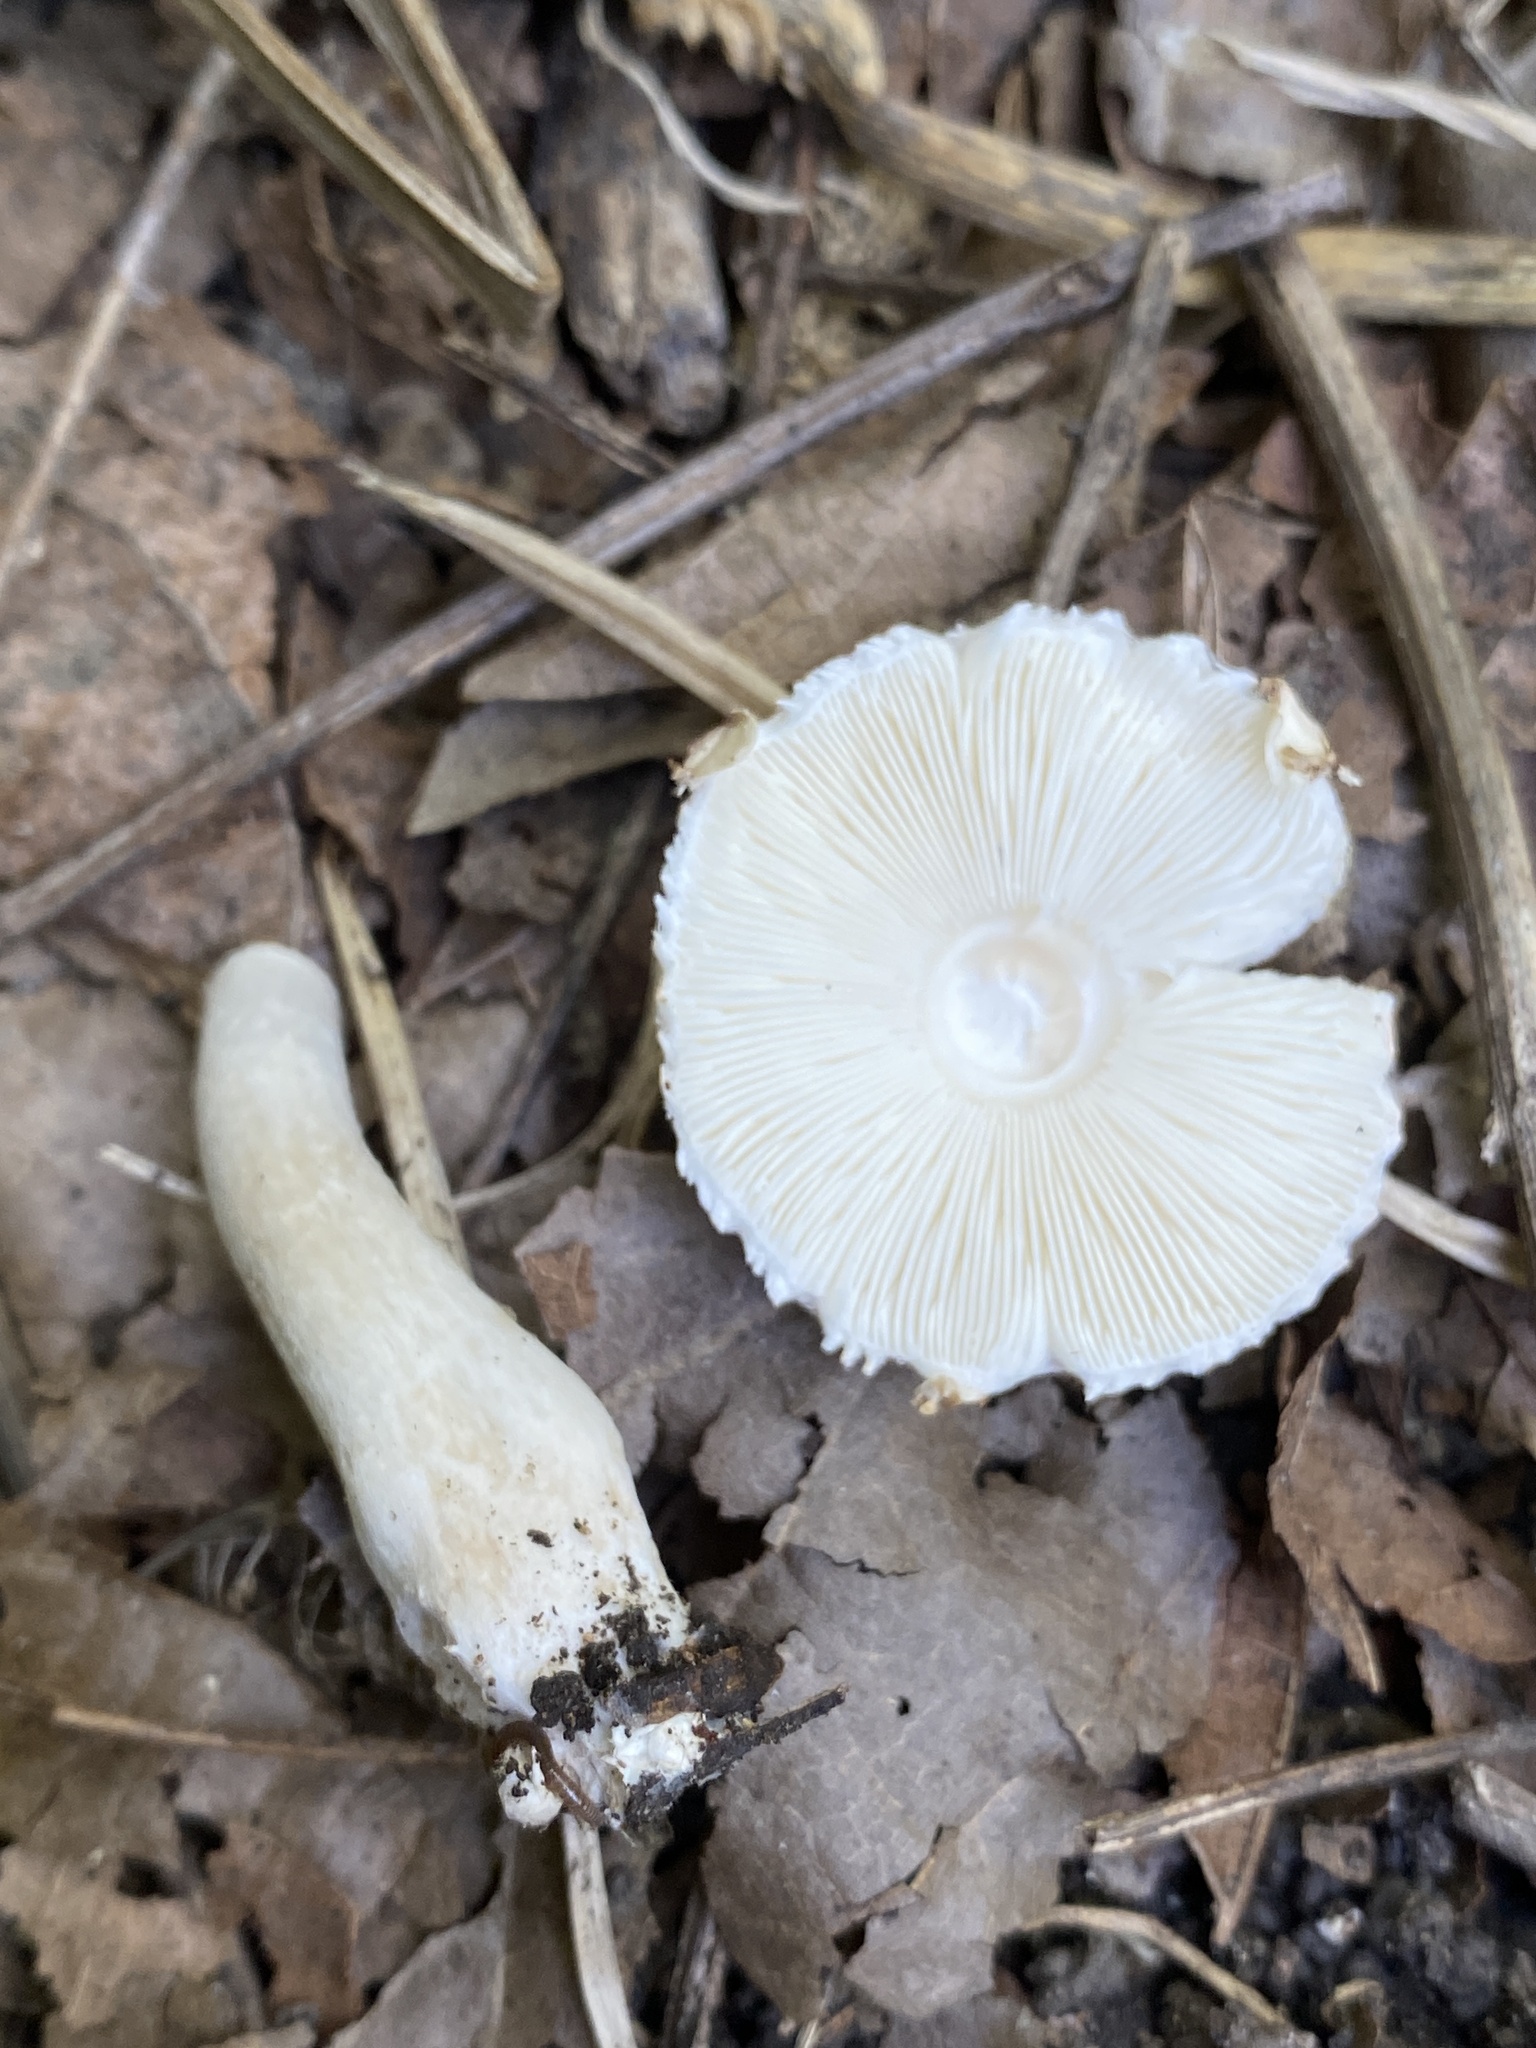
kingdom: Fungi
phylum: Basidiomycota
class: Agaricomycetes
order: Agaricales
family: Agaricaceae
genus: Leucoagaricus
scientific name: Leucoagaricus barssii
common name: Smoky dapperling
